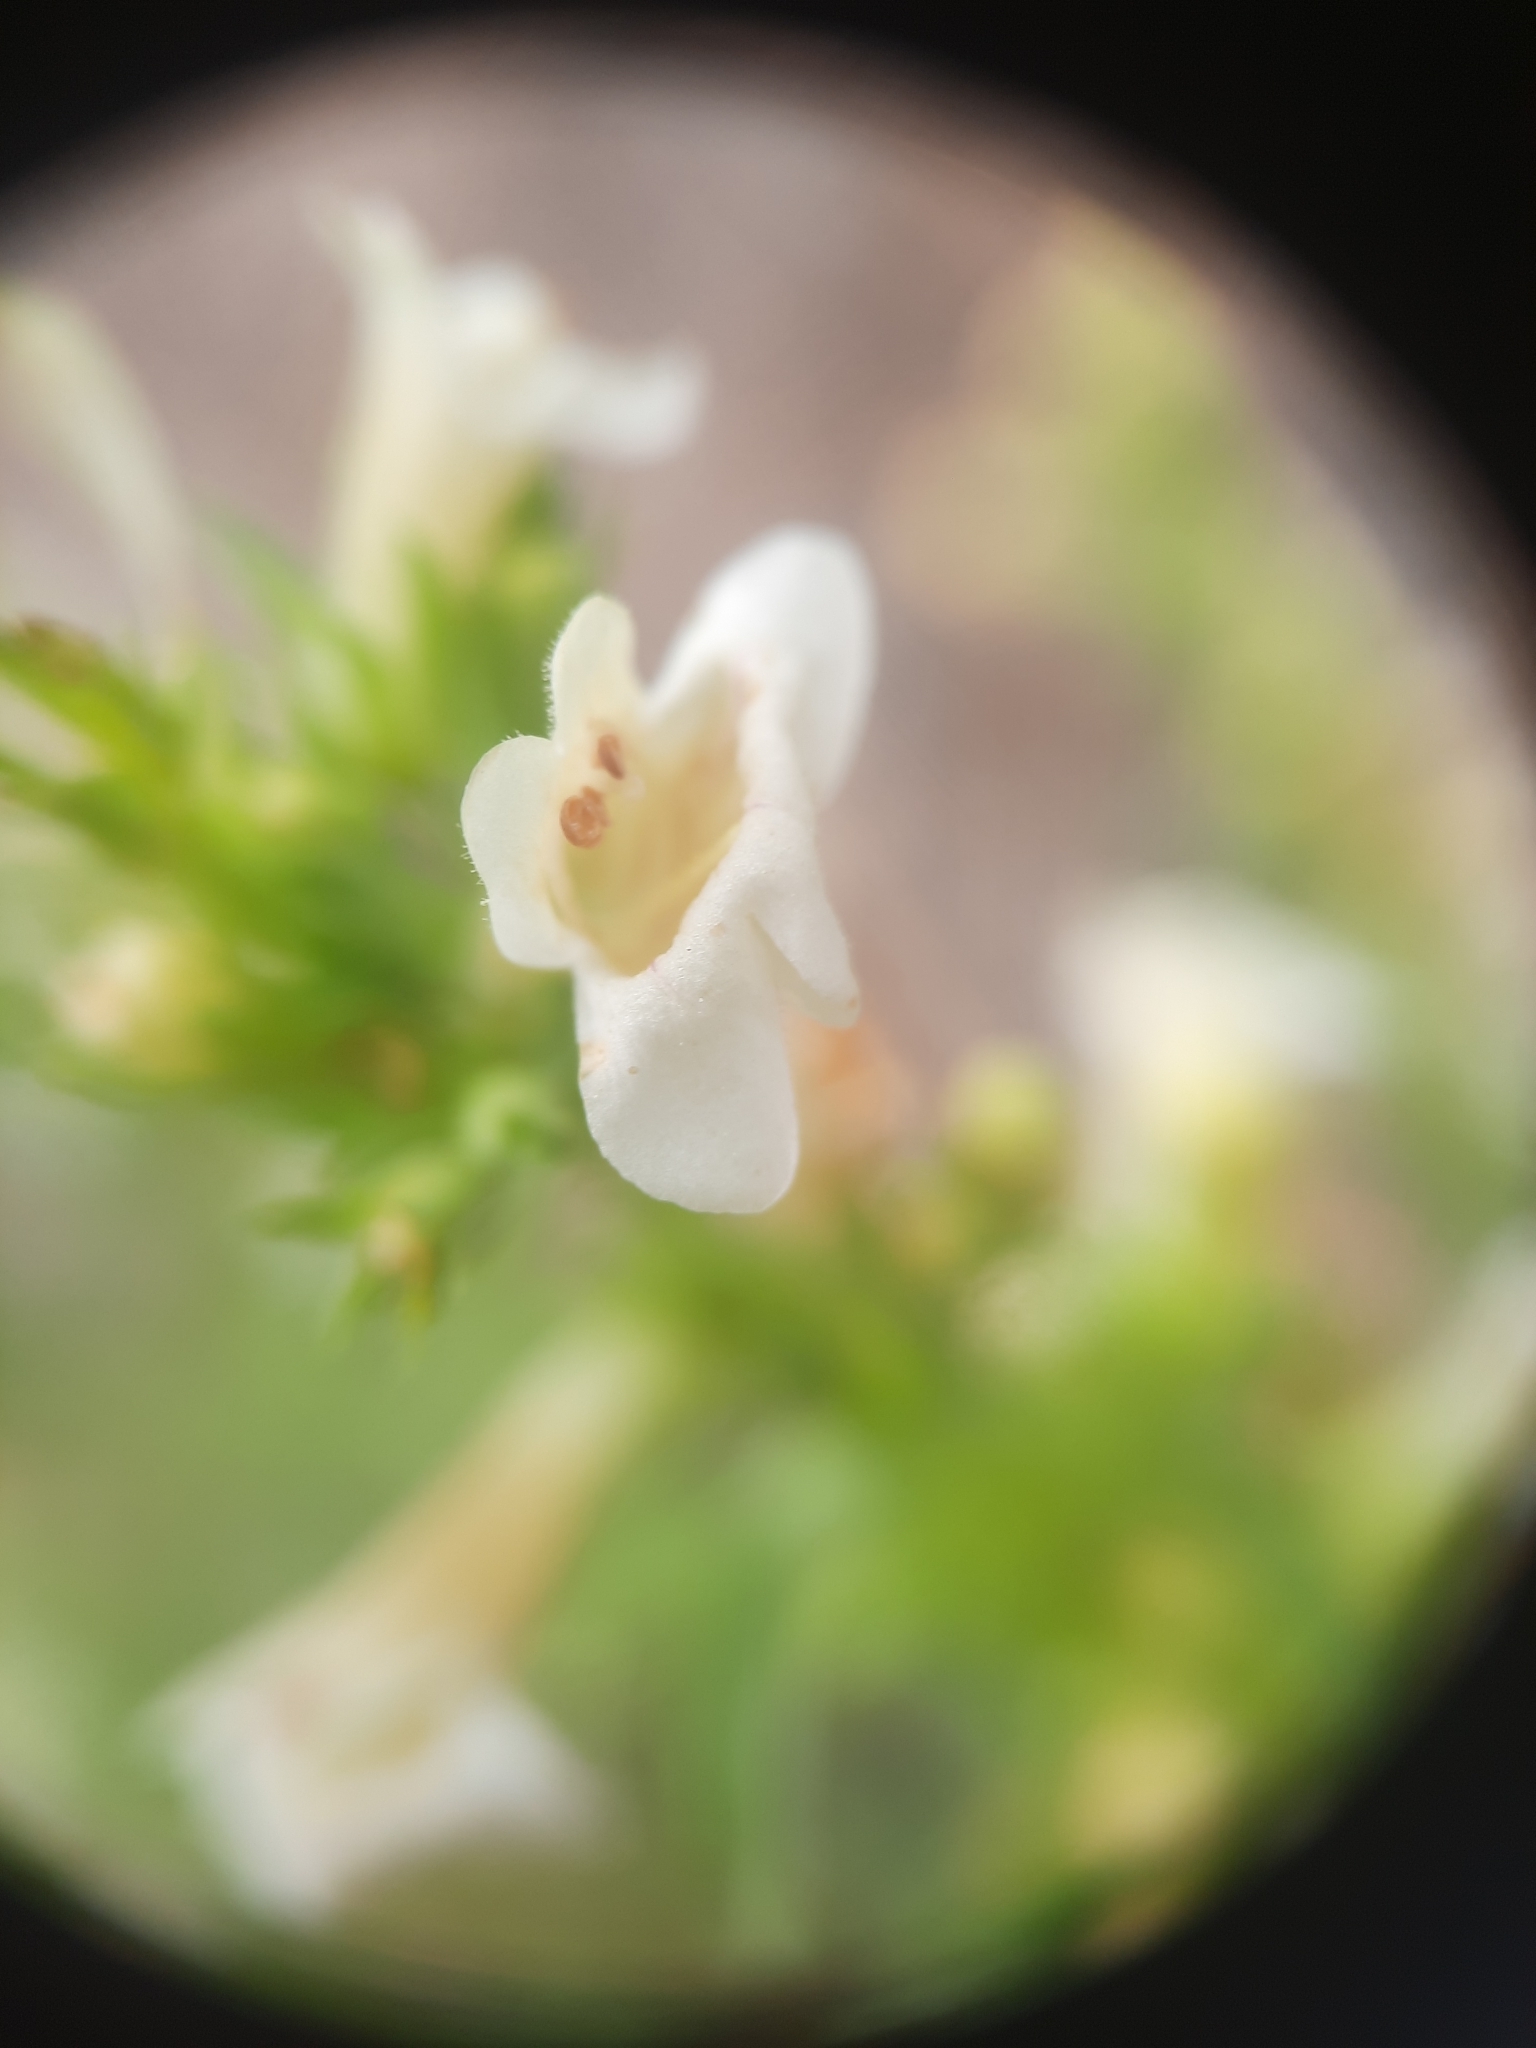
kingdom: Plantae
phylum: Tracheophyta
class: Magnoliopsida
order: Lamiales
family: Plantaginaceae
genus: Penstemon
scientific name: Penstemon deustus
